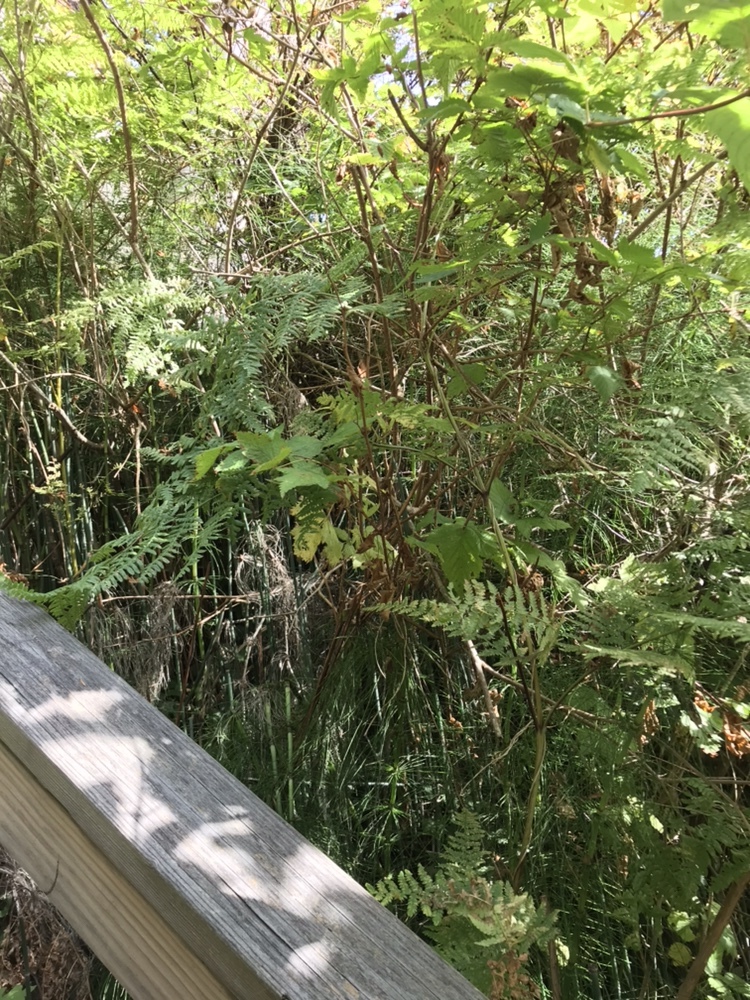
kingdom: Plantae
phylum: Tracheophyta
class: Polypodiopsida
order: Polypodiales
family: Dennstaedtiaceae
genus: Pteridium
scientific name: Pteridium aquilinum
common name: Bracken
